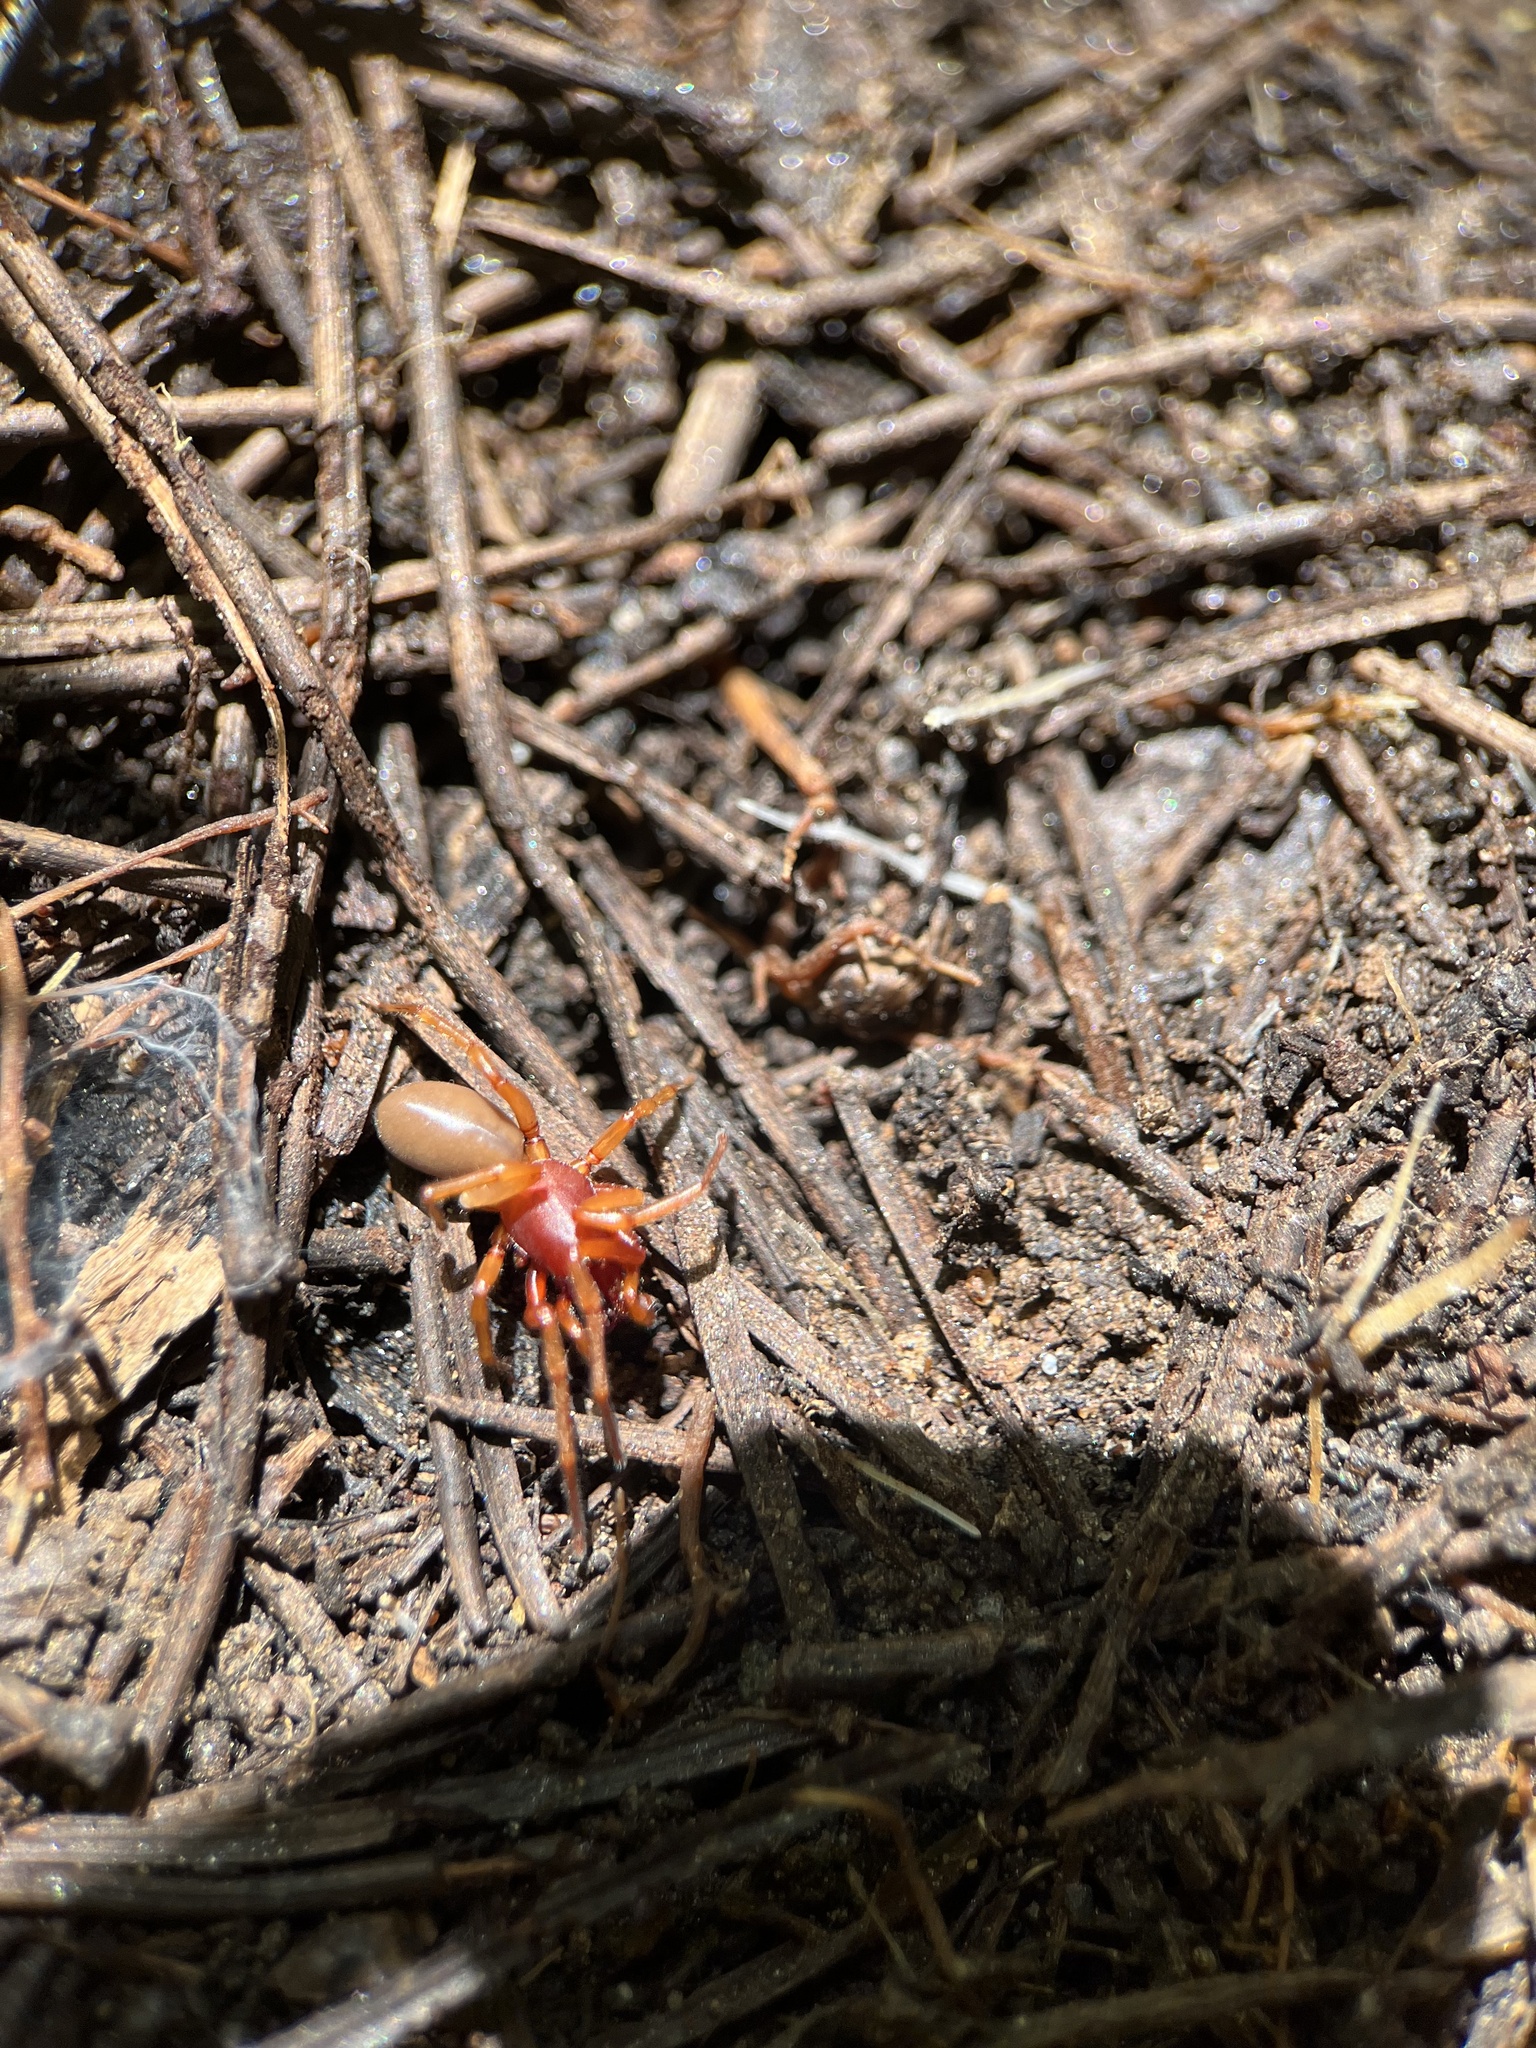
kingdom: Animalia
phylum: Arthropoda
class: Arachnida
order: Araneae
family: Dysderidae
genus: Dysdera
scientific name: Dysdera crocata
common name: Woodlouse spider
